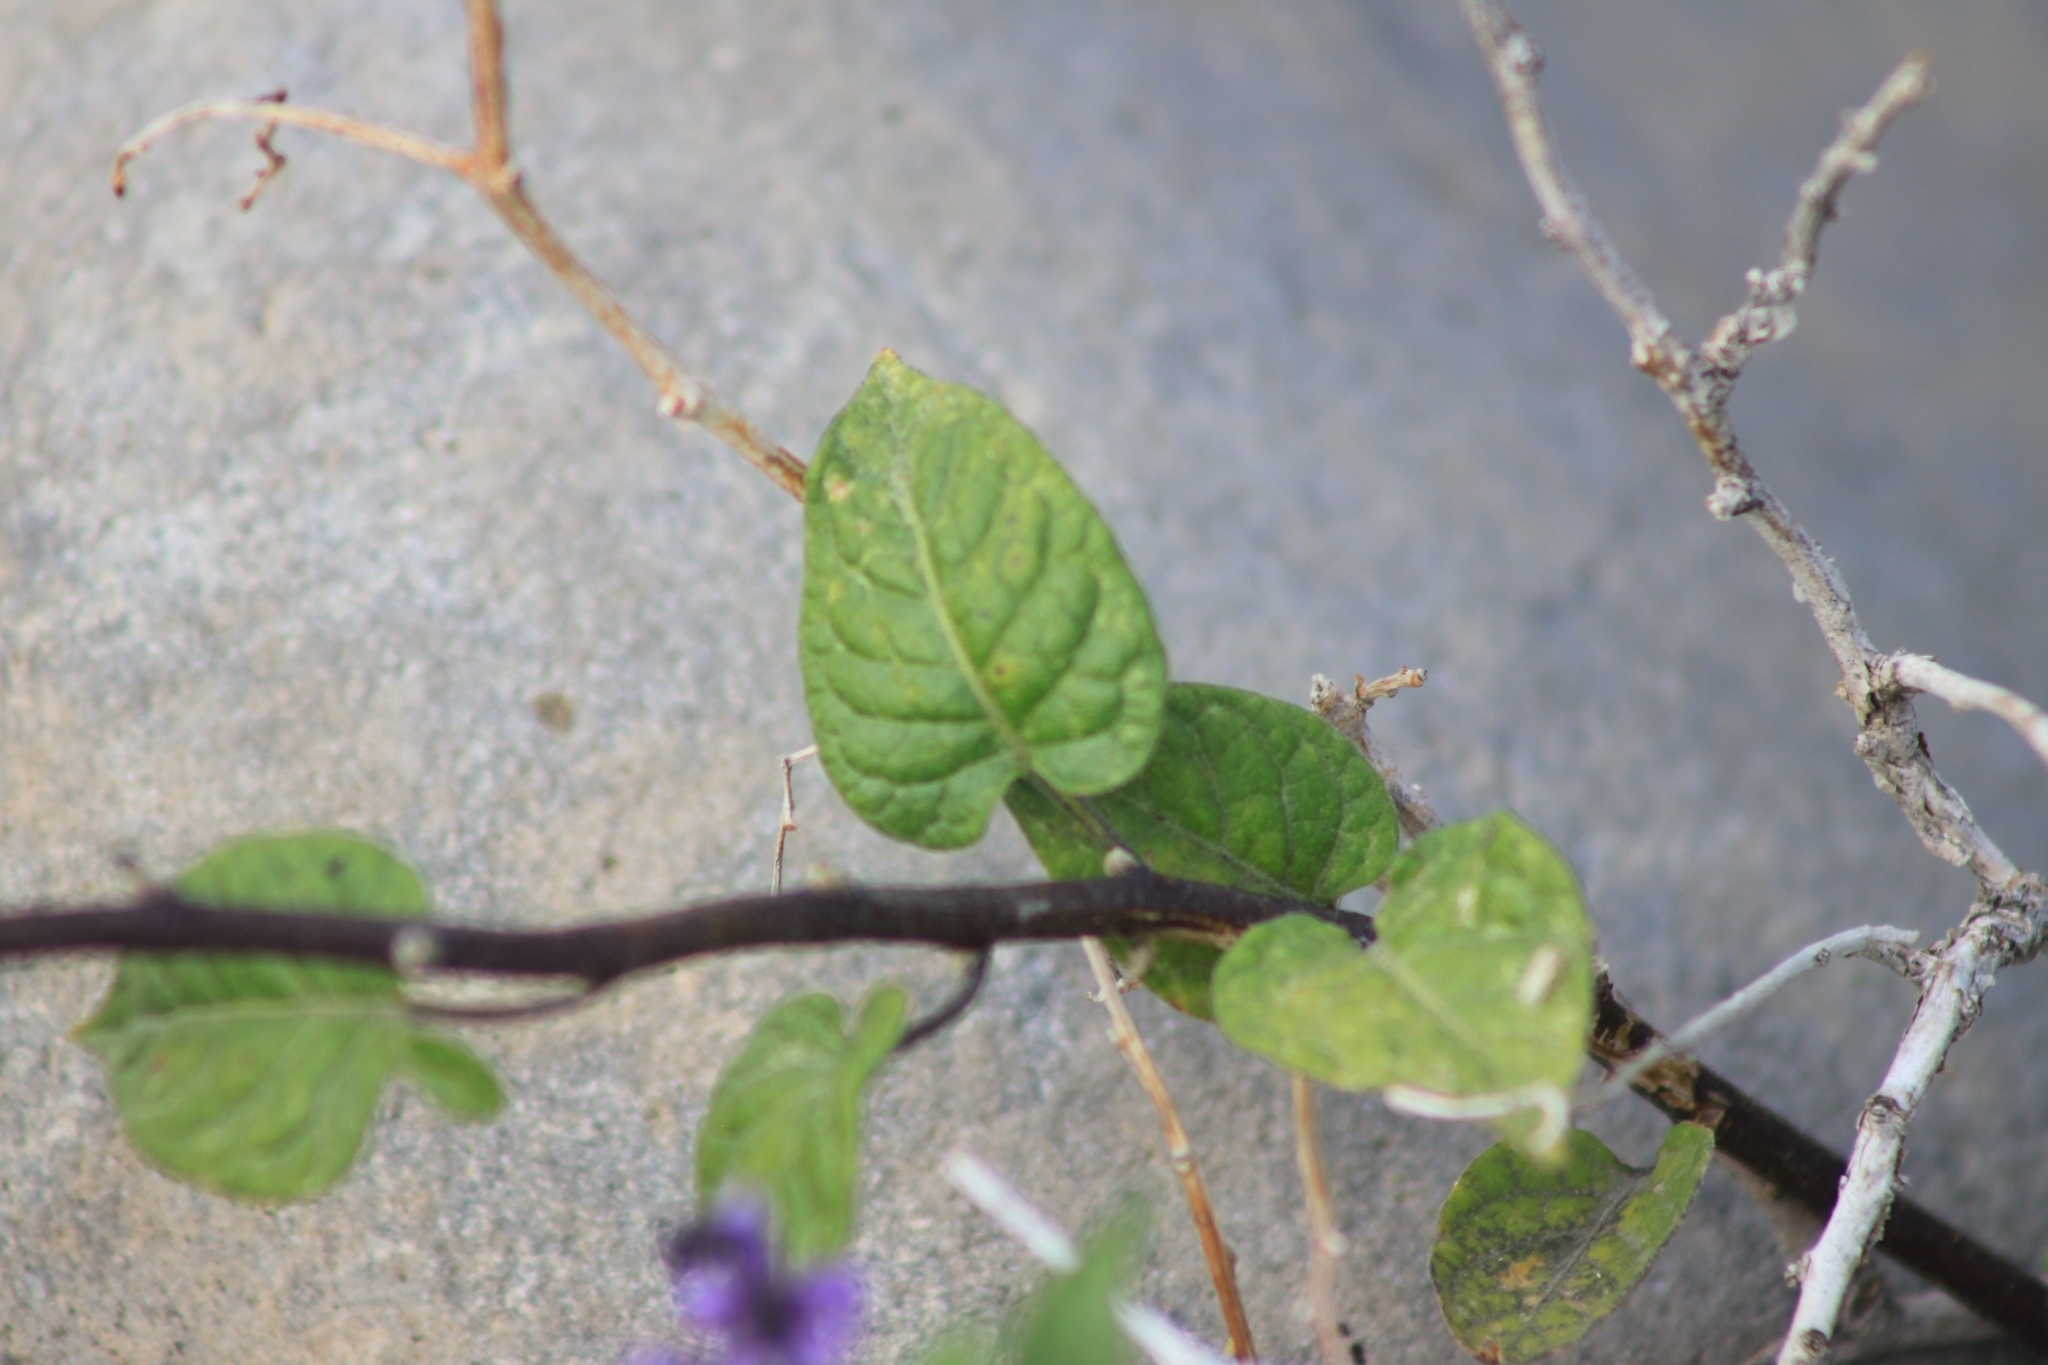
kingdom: Plantae
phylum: Tracheophyta
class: Magnoliopsida
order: Solanales
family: Solanaceae
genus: Solanum
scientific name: Solanum dulcamara
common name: Climbing nightshade
